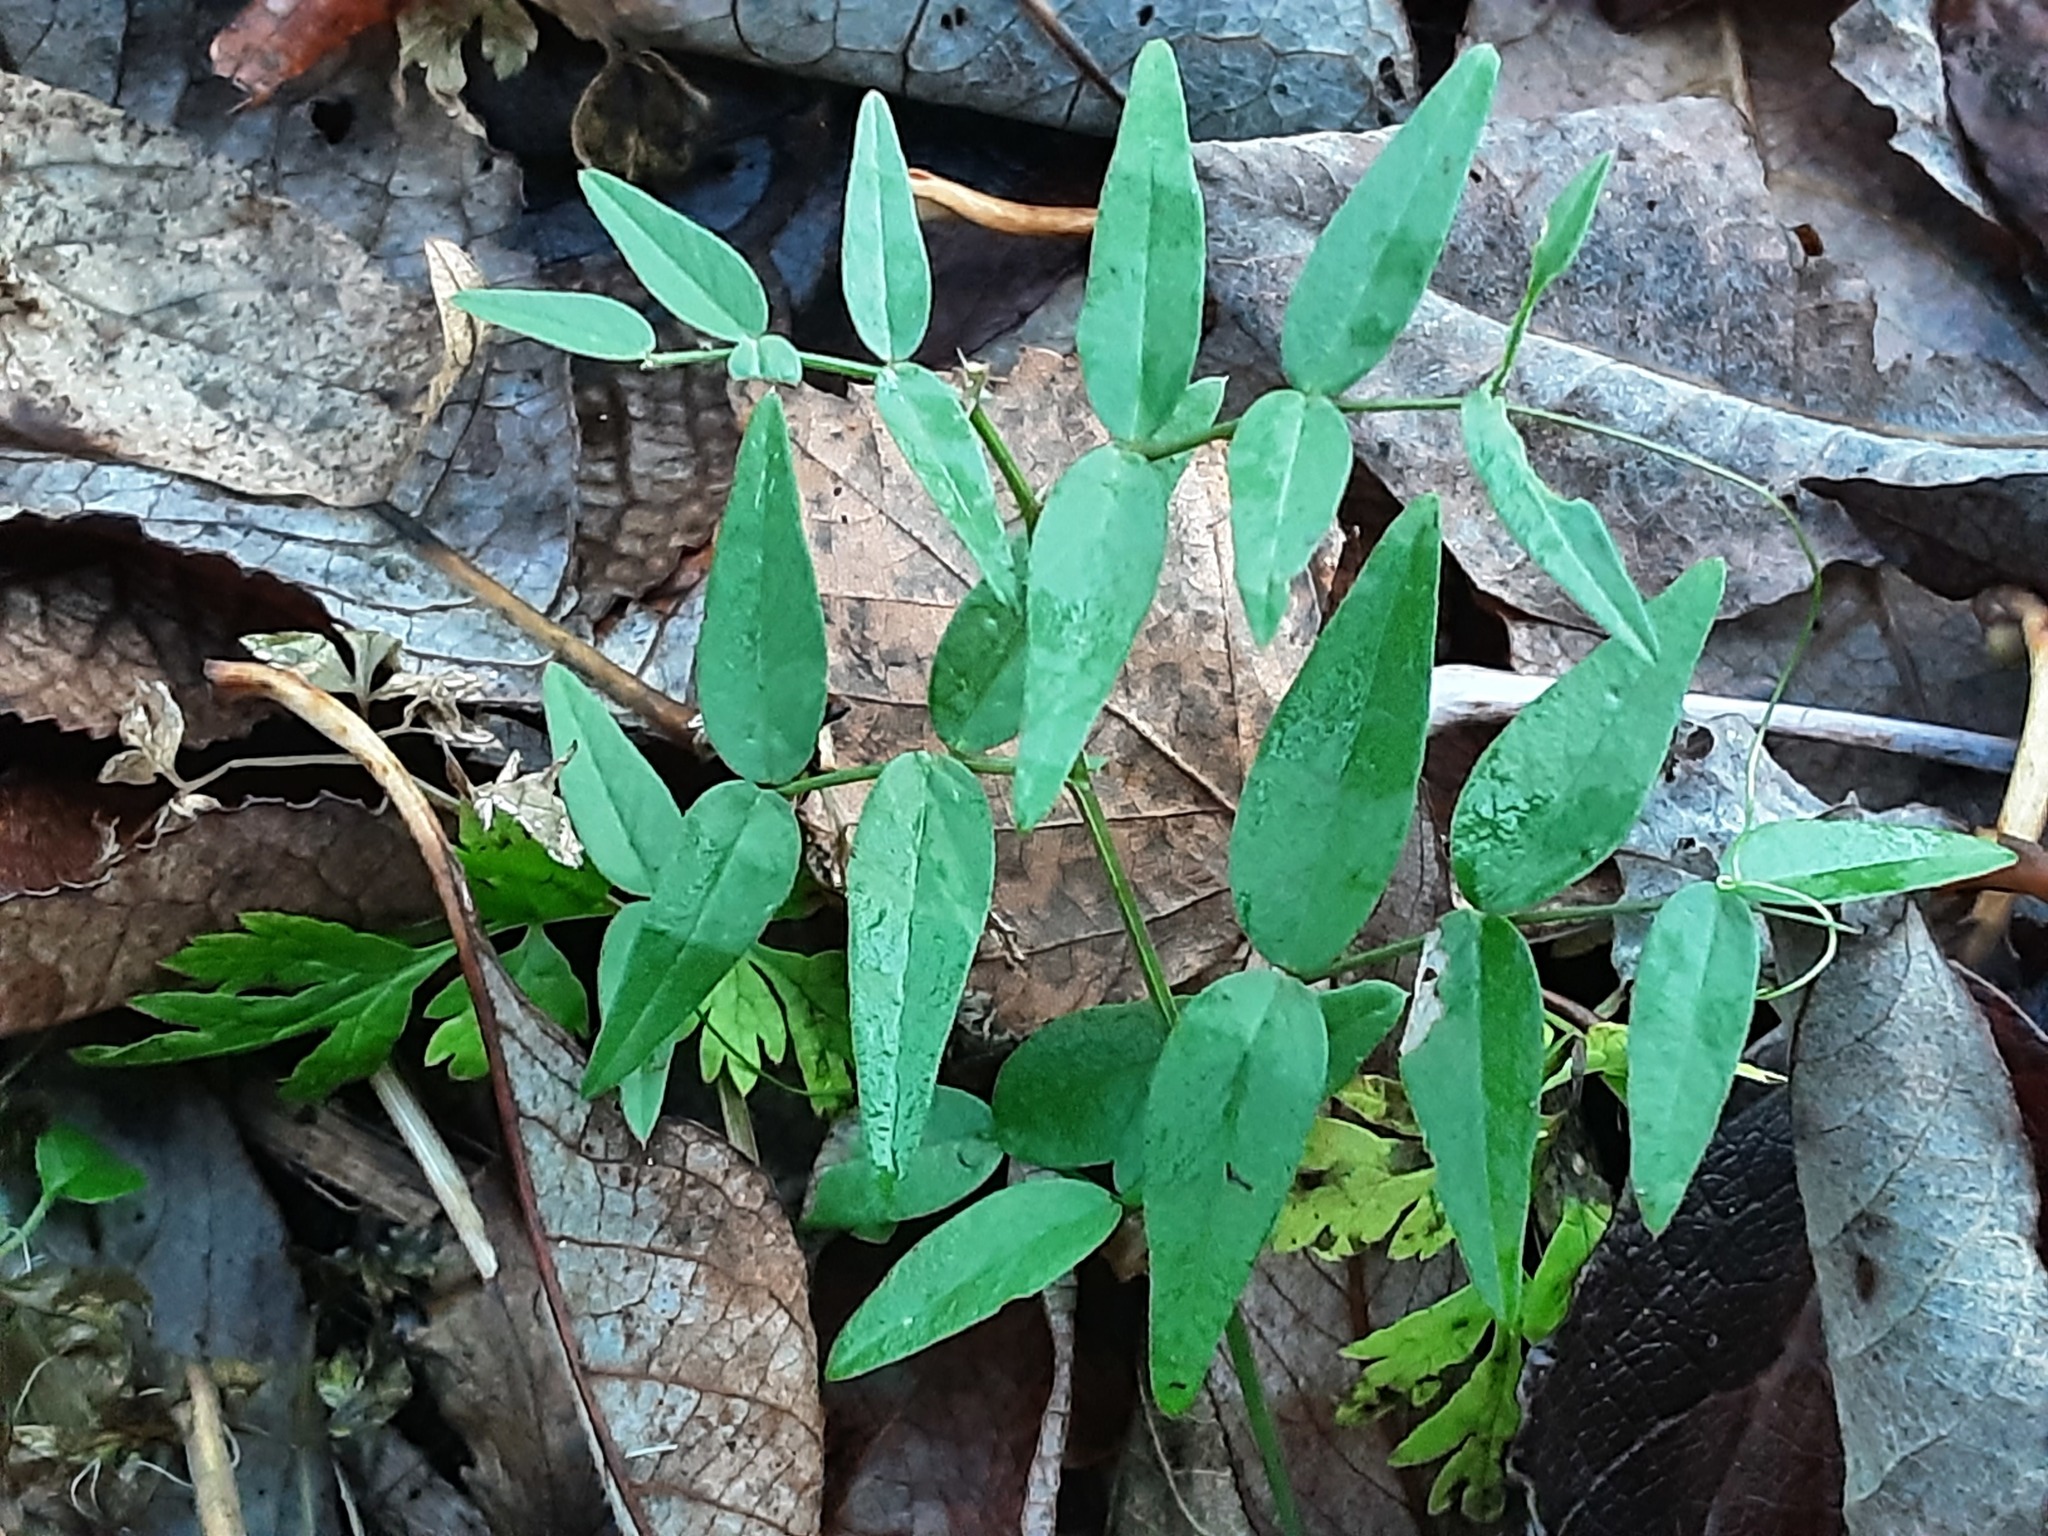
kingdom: Plantae
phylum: Tracheophyta
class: Magnoliopsida
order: Fabales
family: Fabaceae
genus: Vicia
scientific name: Vicia sepium
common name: Bush vetch
